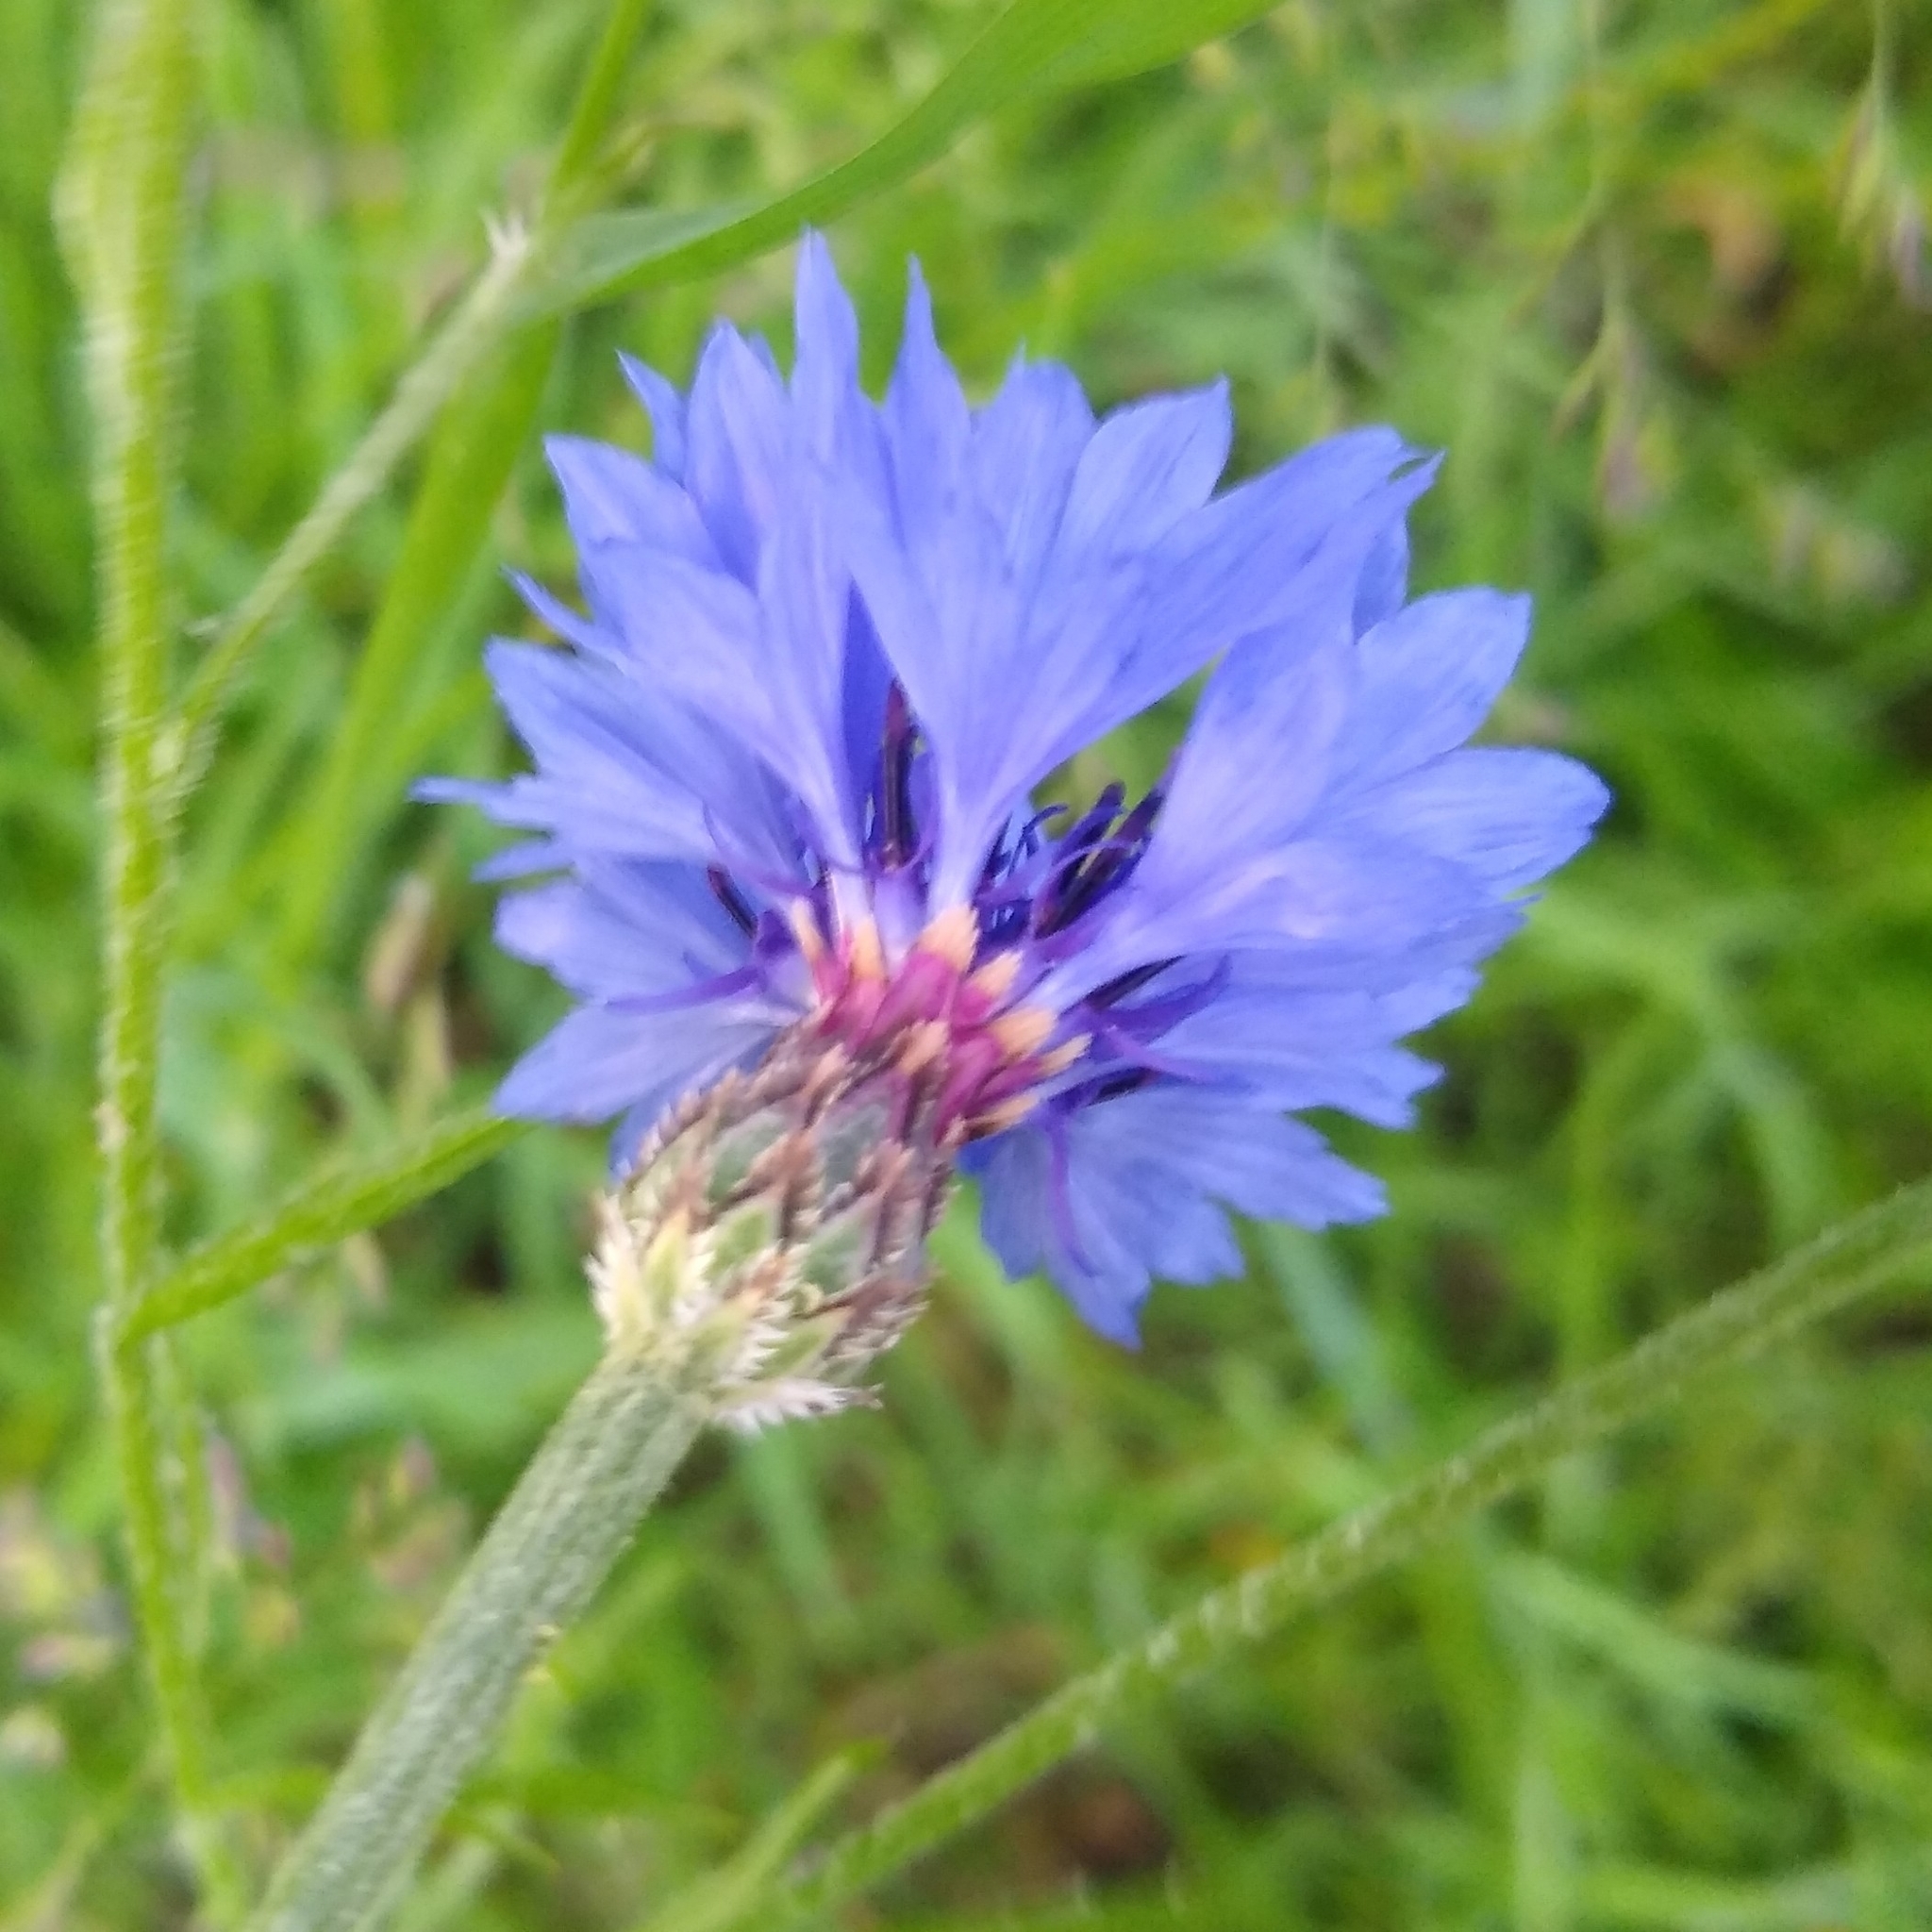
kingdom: Plantae
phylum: Tracheophyta
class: Magnoliopsida
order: Asterales
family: Asteraceae
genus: Centaurea
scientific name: Centaurea cyanus
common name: Cornflower
